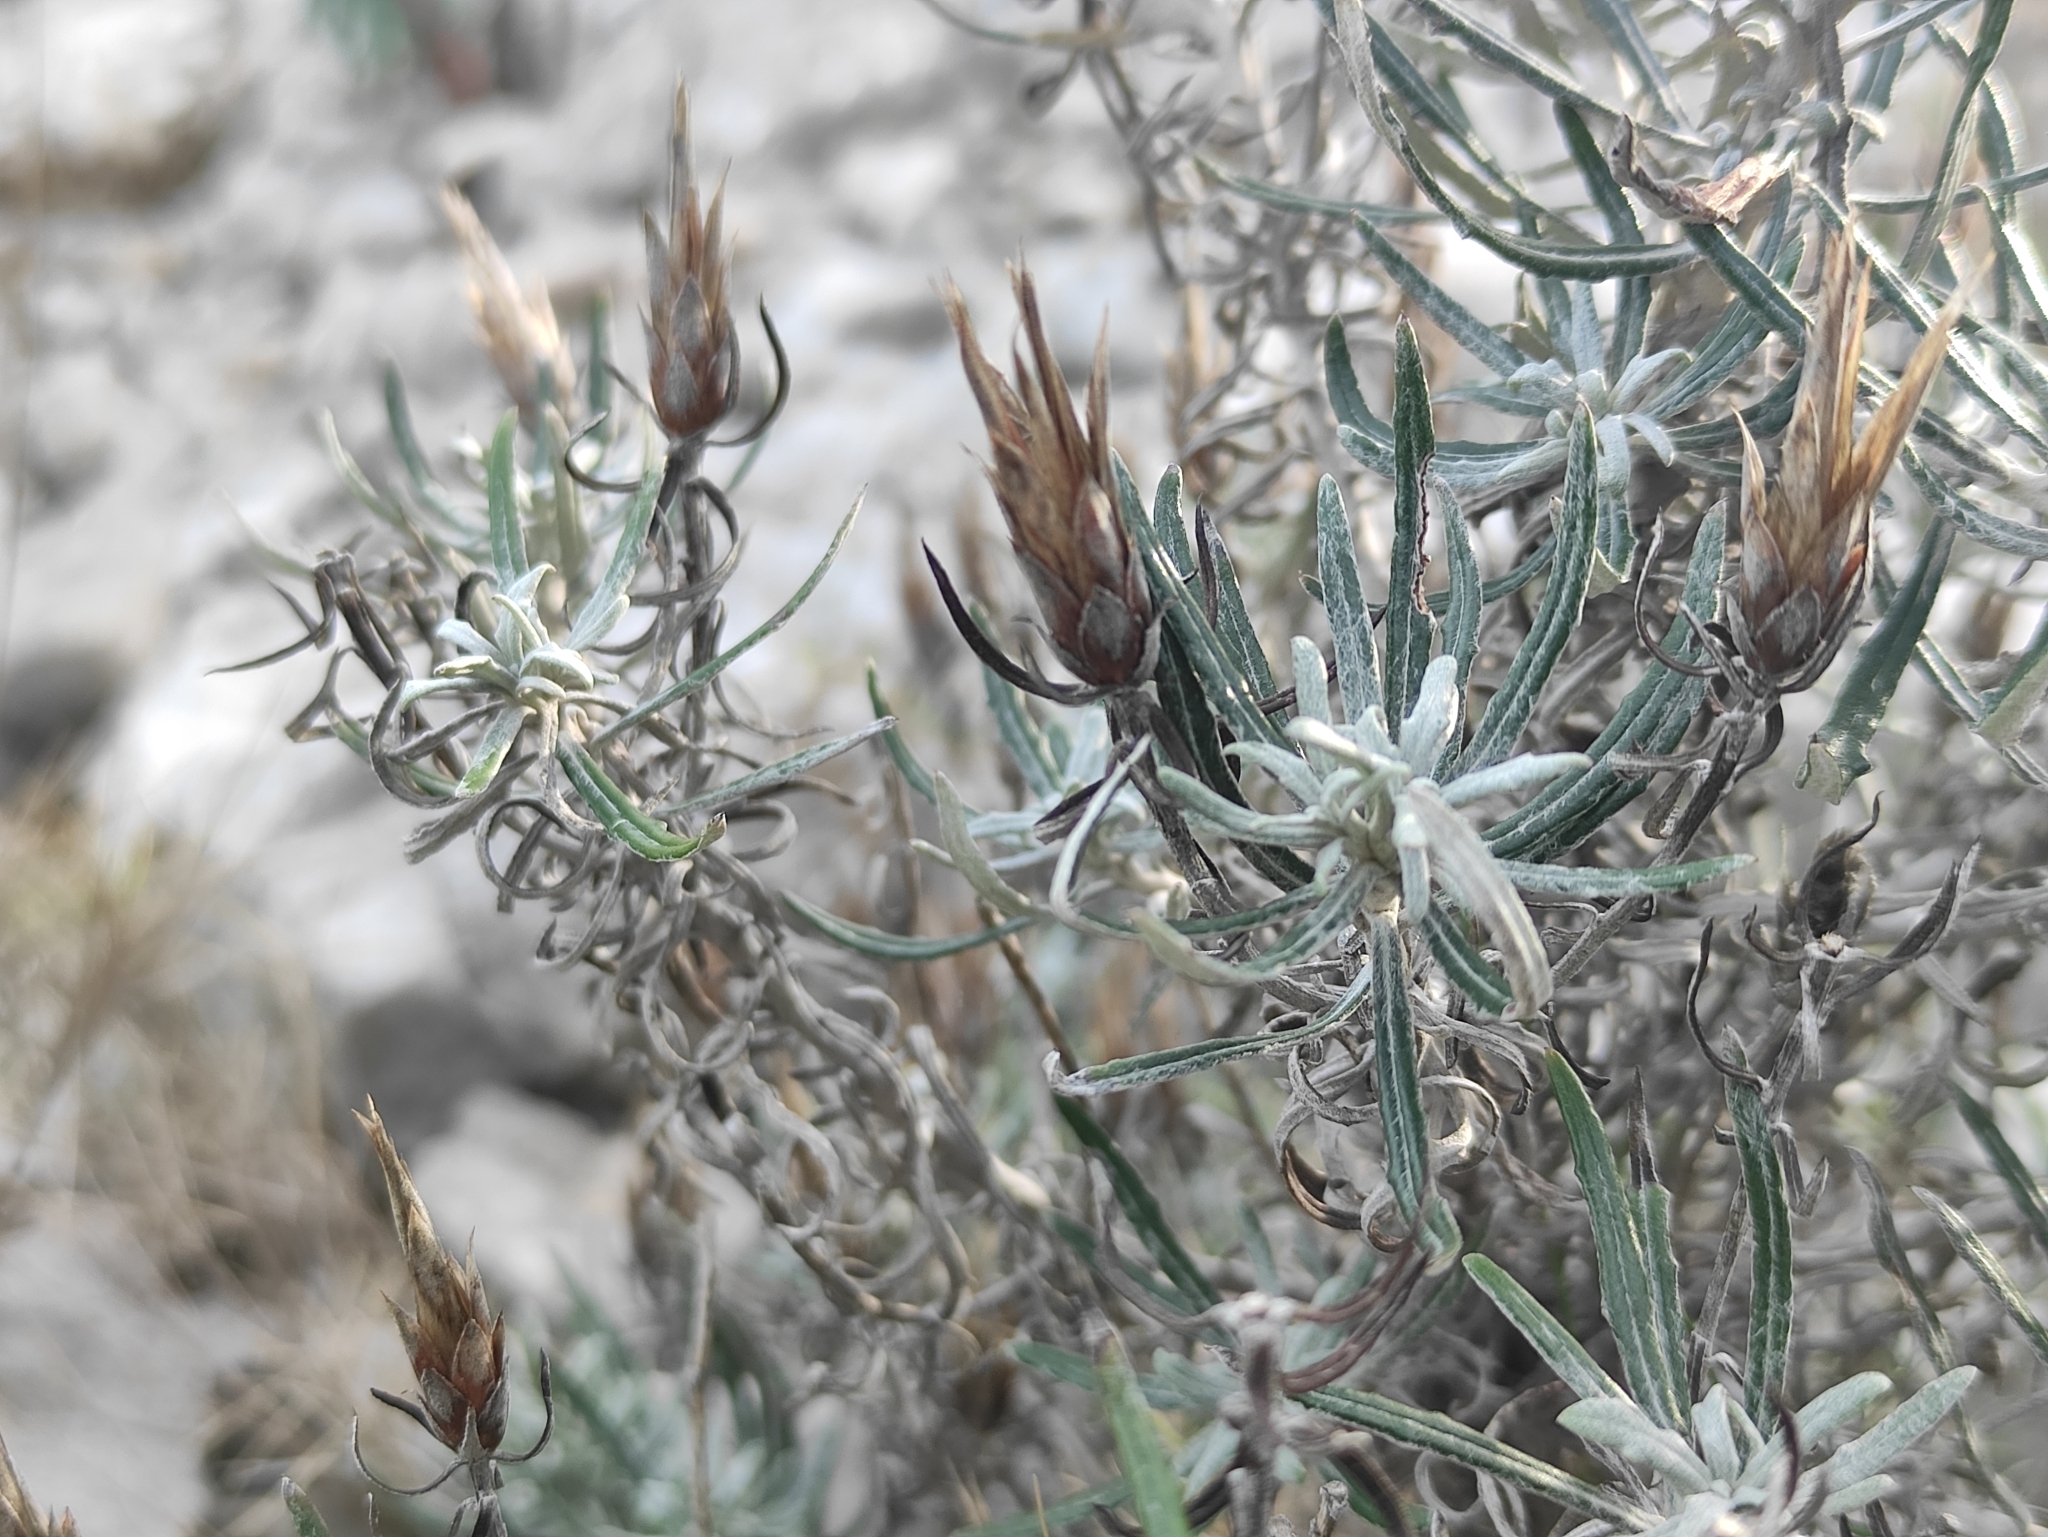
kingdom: Plantae
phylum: Tracheophyta
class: Magnoliopsida
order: Asterales
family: Asteraceae
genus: Staehelina
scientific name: Staehelina dubia
